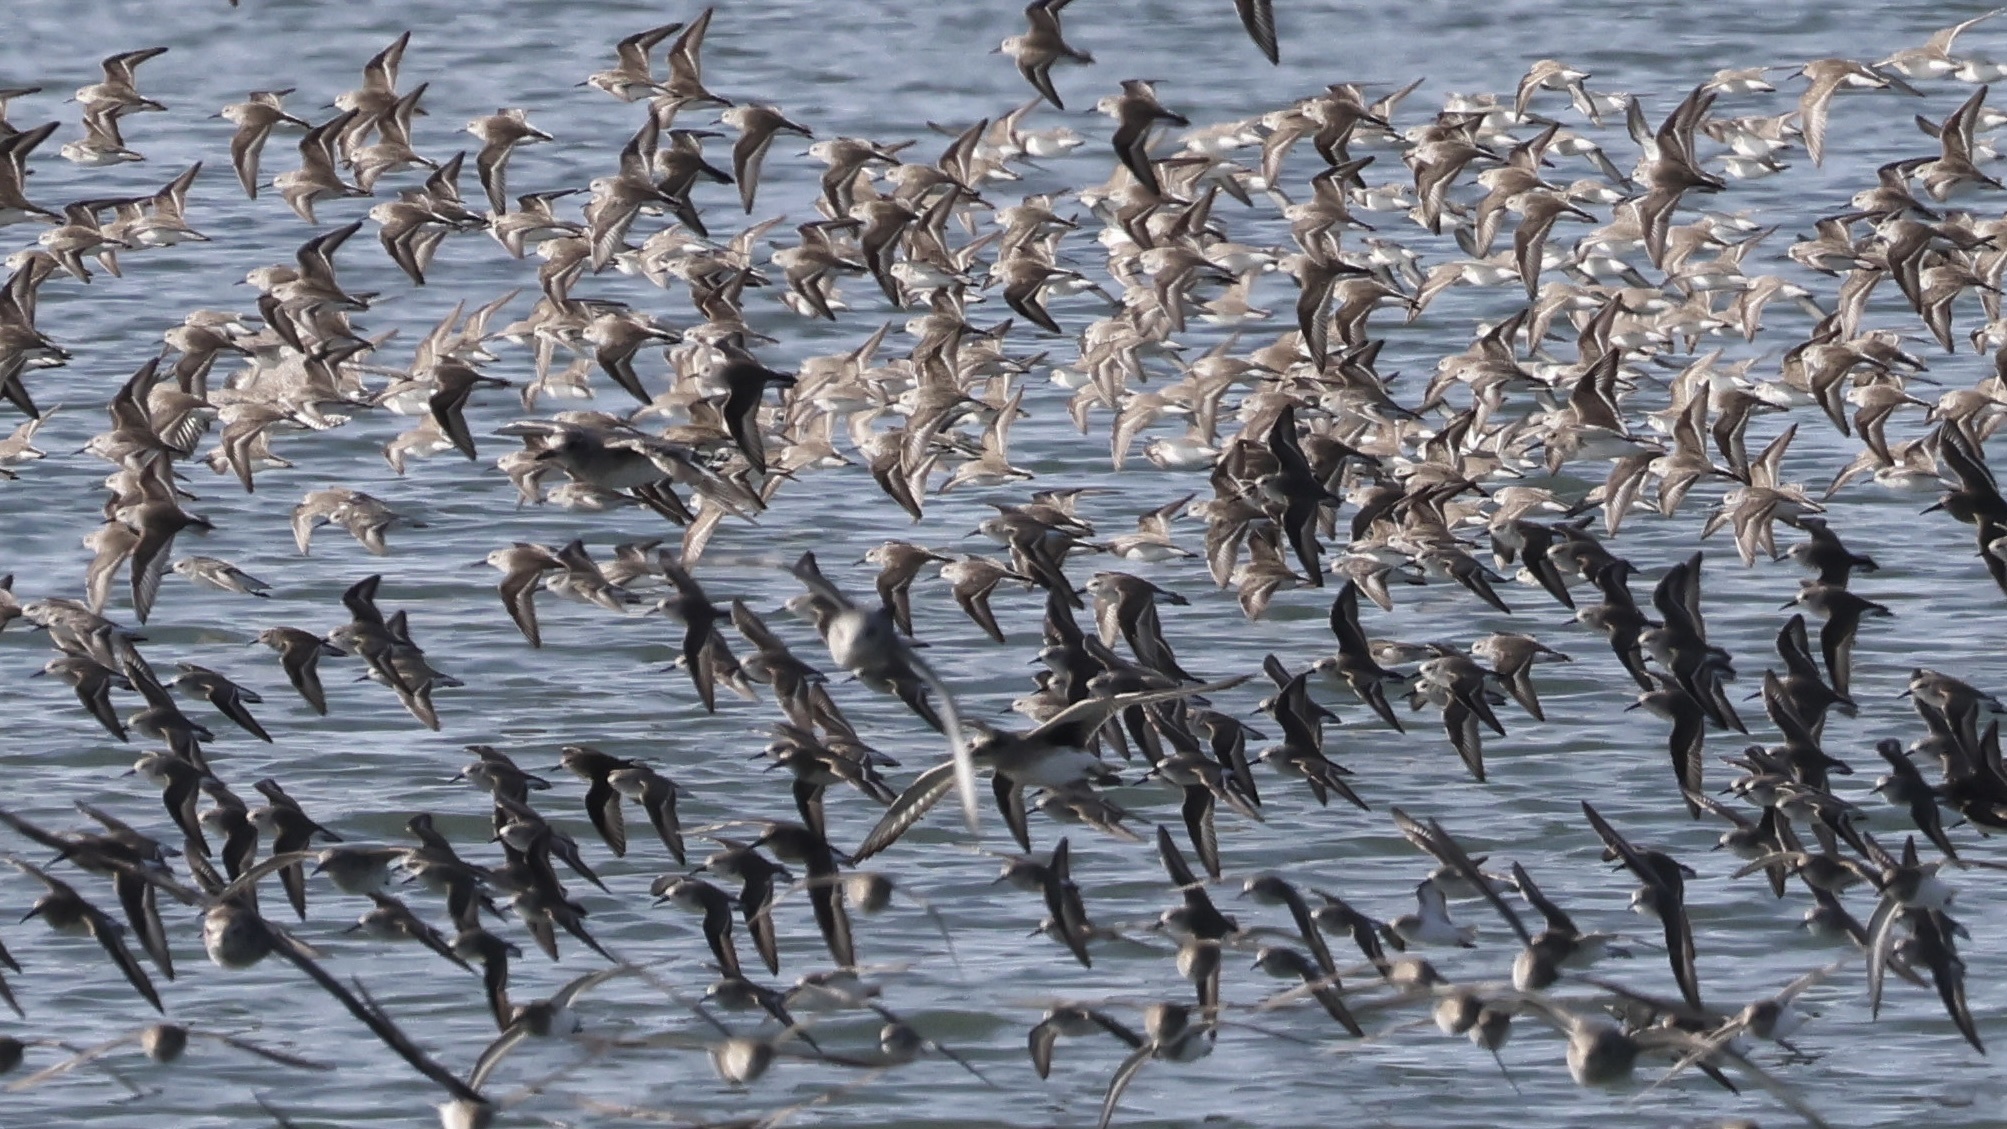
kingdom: Animalia
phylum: Chordata
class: Aves
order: Charadriiformes
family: Scolopacidae
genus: Calidris
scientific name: Calidris mauri
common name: Western sandpiper
